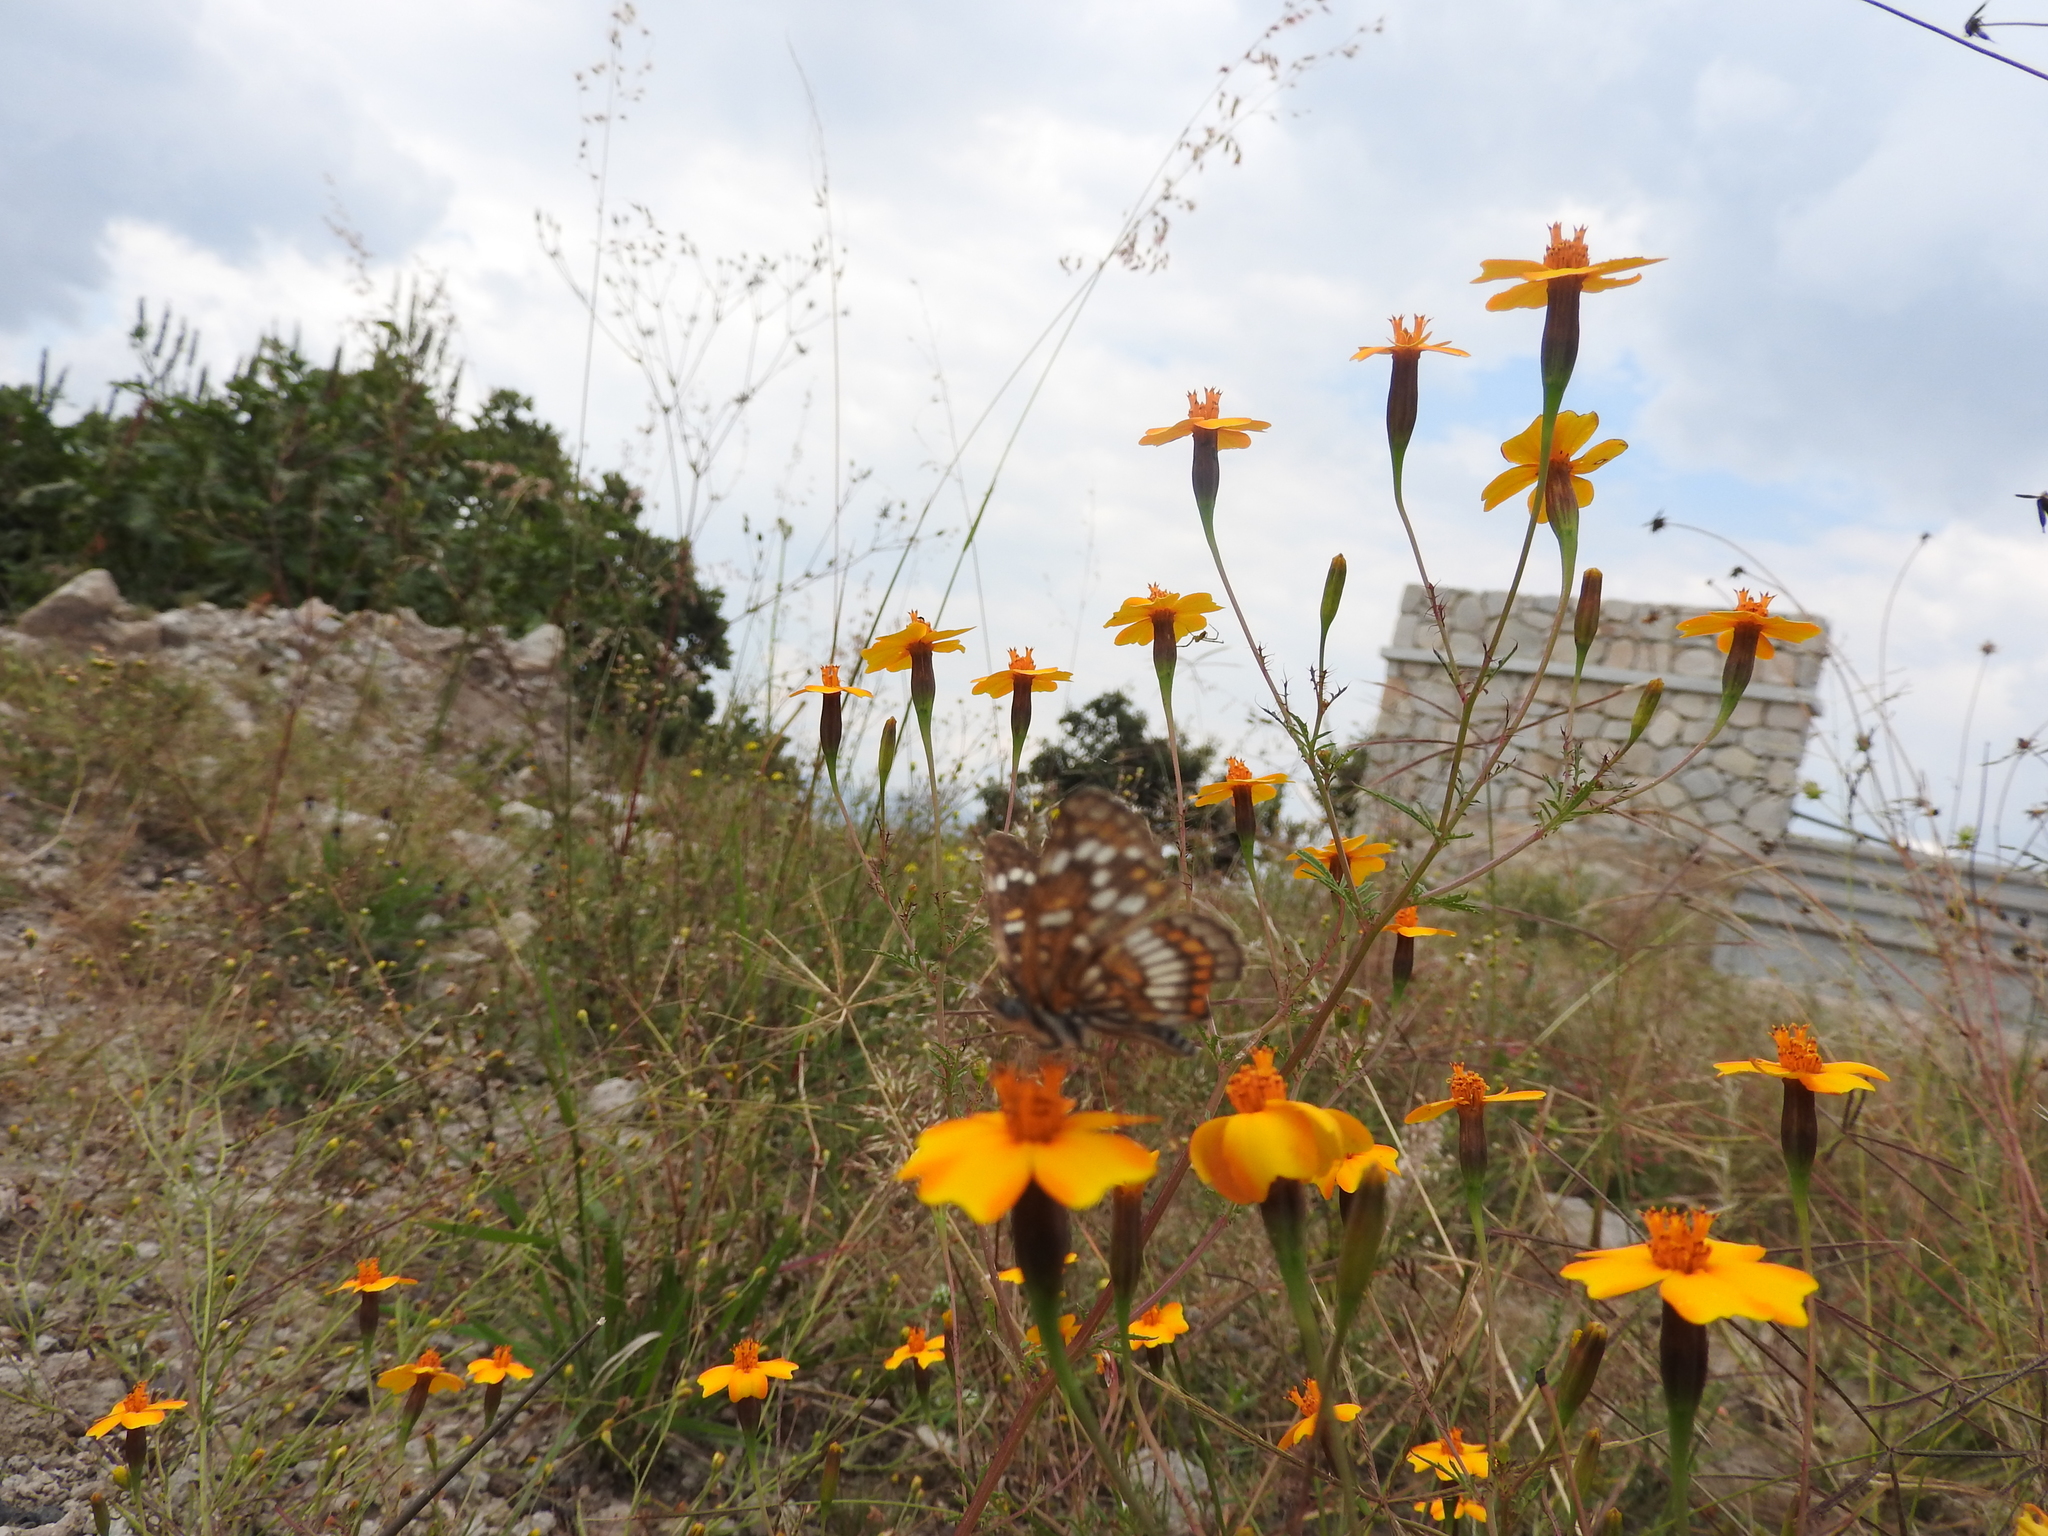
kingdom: Animalia
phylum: Arthropoda
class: Insecta
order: Lepidoptera
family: Nymphalidae
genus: Thessalia
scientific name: Thessalia theona
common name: Nymphalid moth
